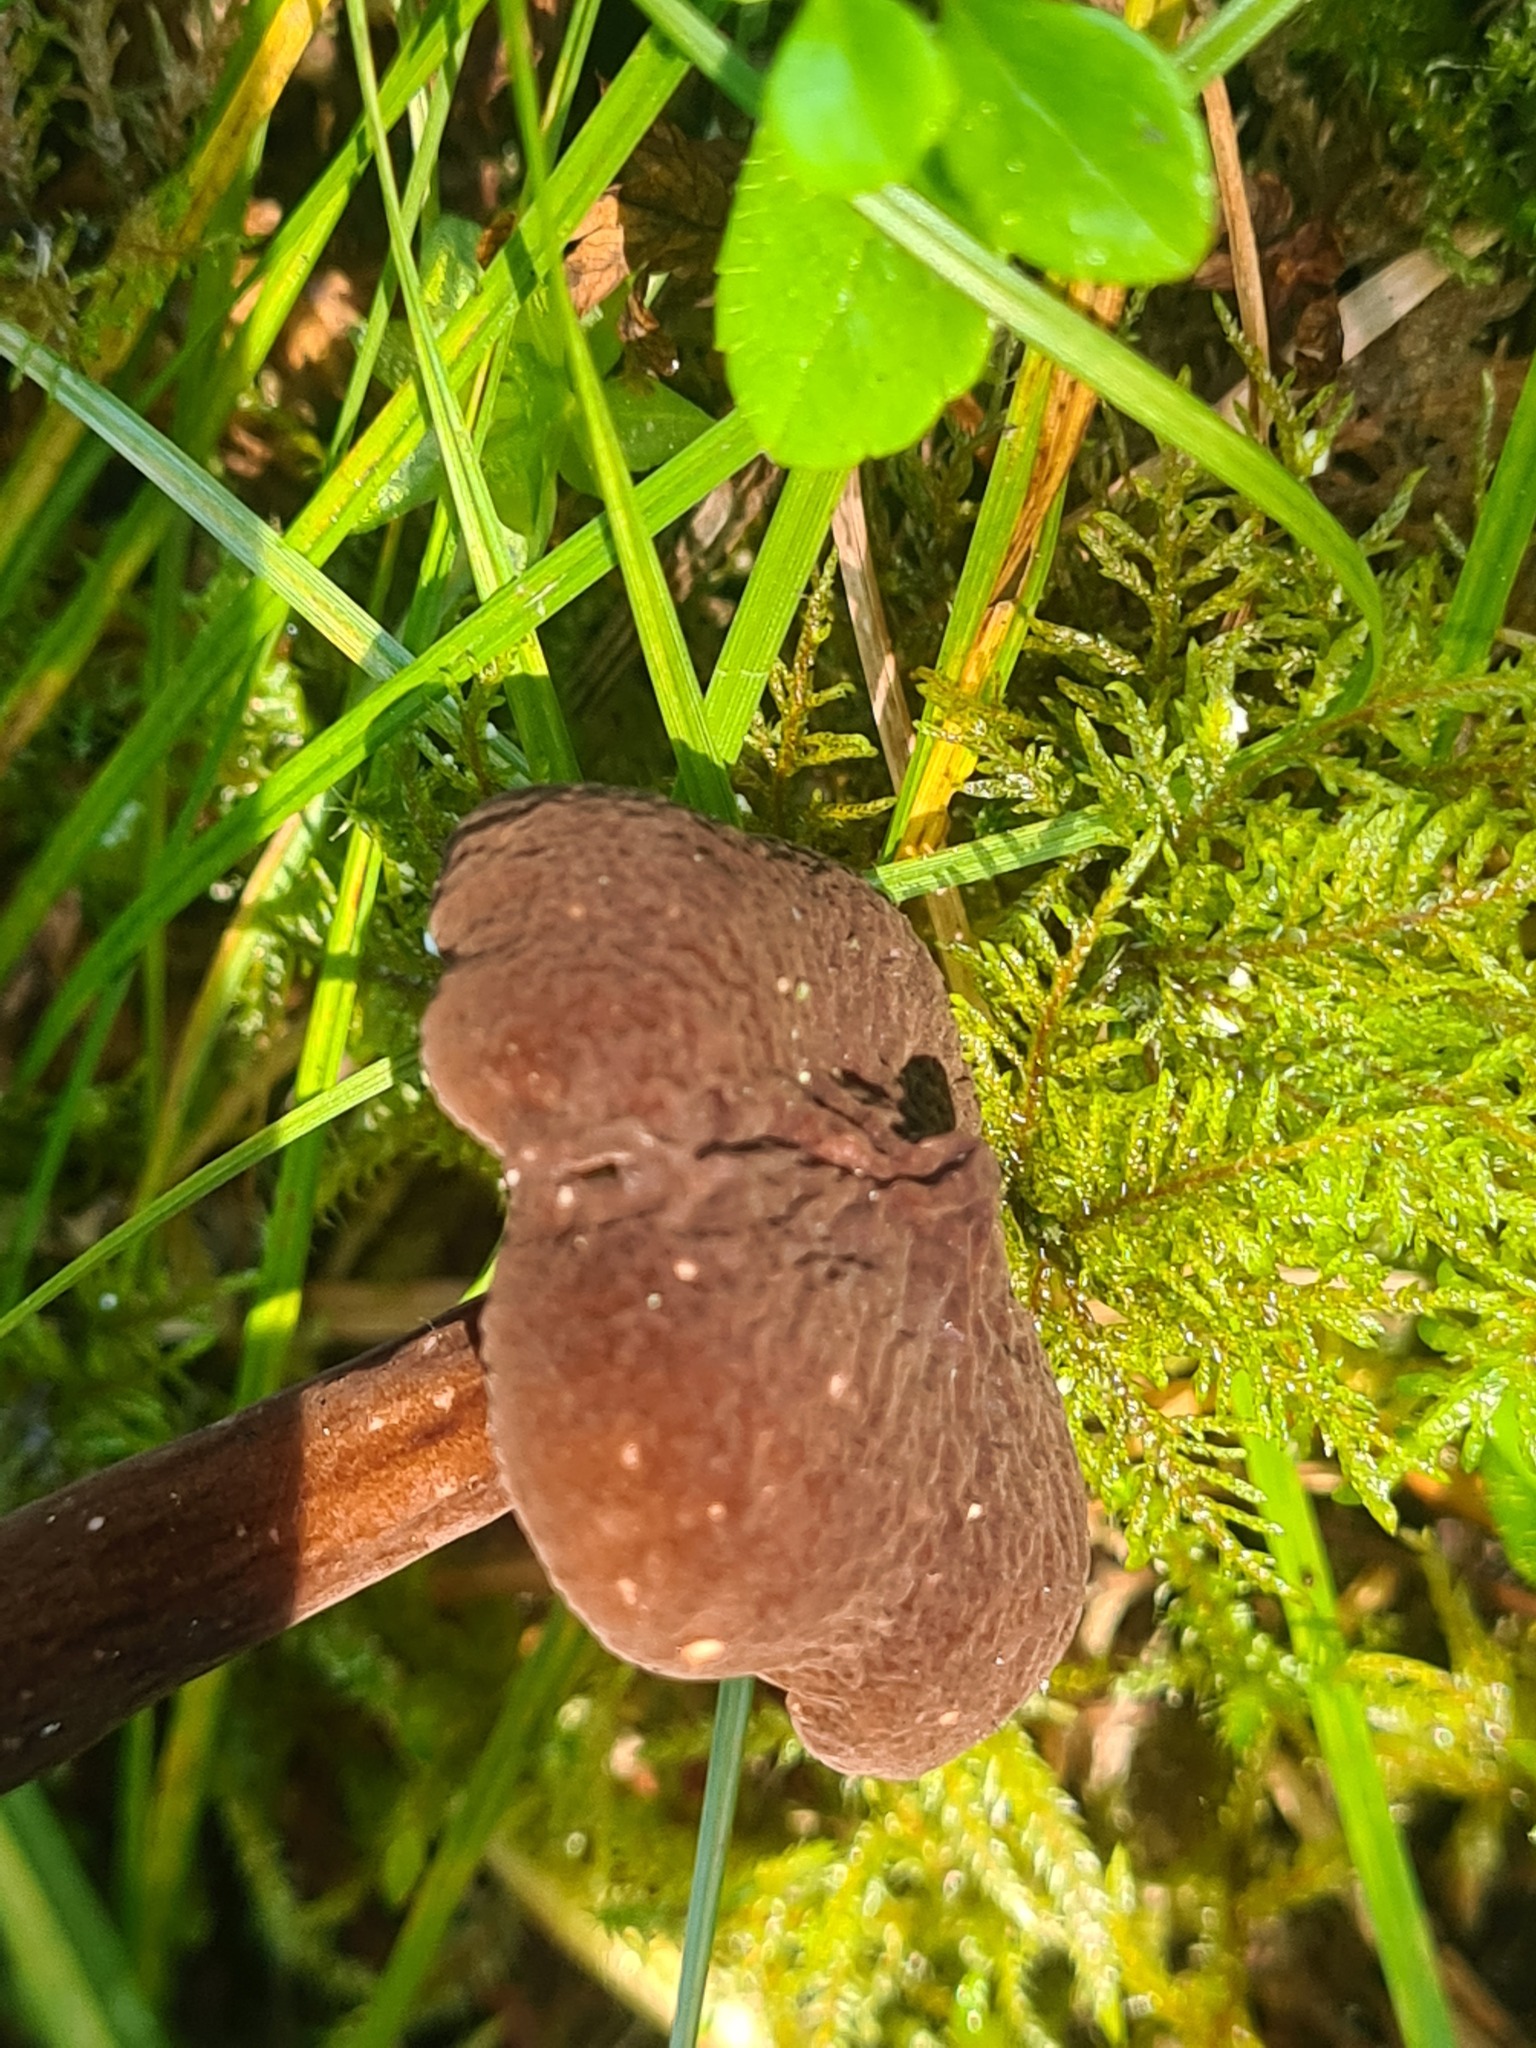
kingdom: Fungi
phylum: Basidiomycota
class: Agaricomycetes
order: Russulales
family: Russulaceae
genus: Lactarius
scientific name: Lactarius lignyotus
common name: Velvet milkcap
